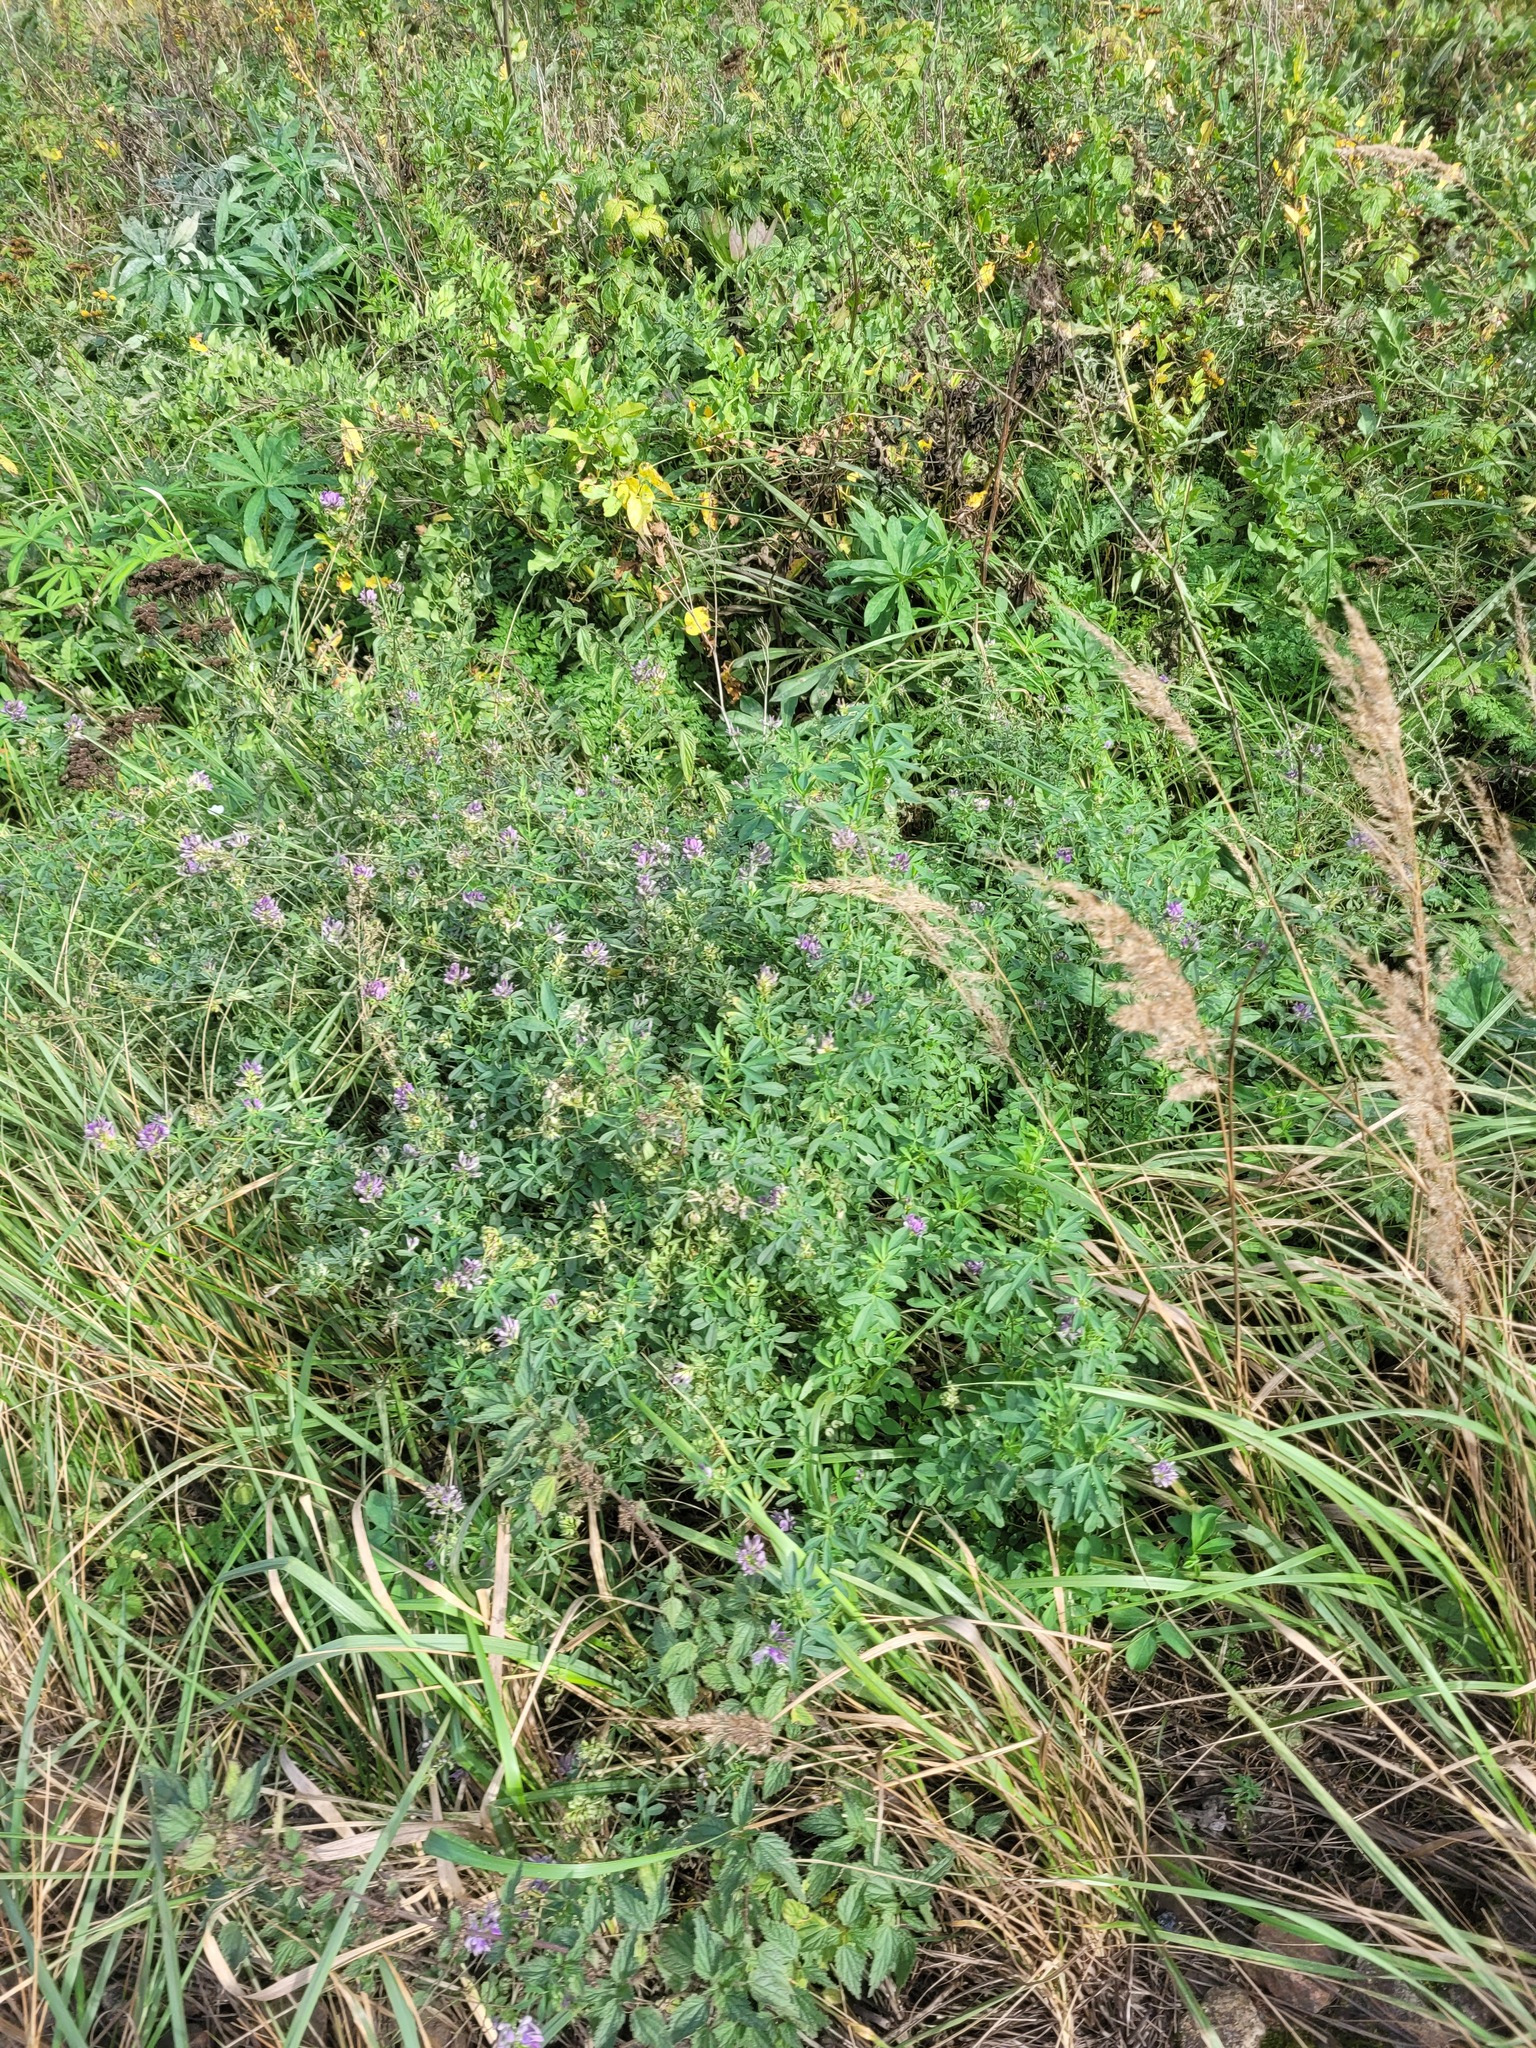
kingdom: Plantae
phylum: Tracheophyta
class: Magnoliopsida
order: Fabales
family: Fabaceae
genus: Medicago
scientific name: Medicago varia
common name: Sand lucerne
